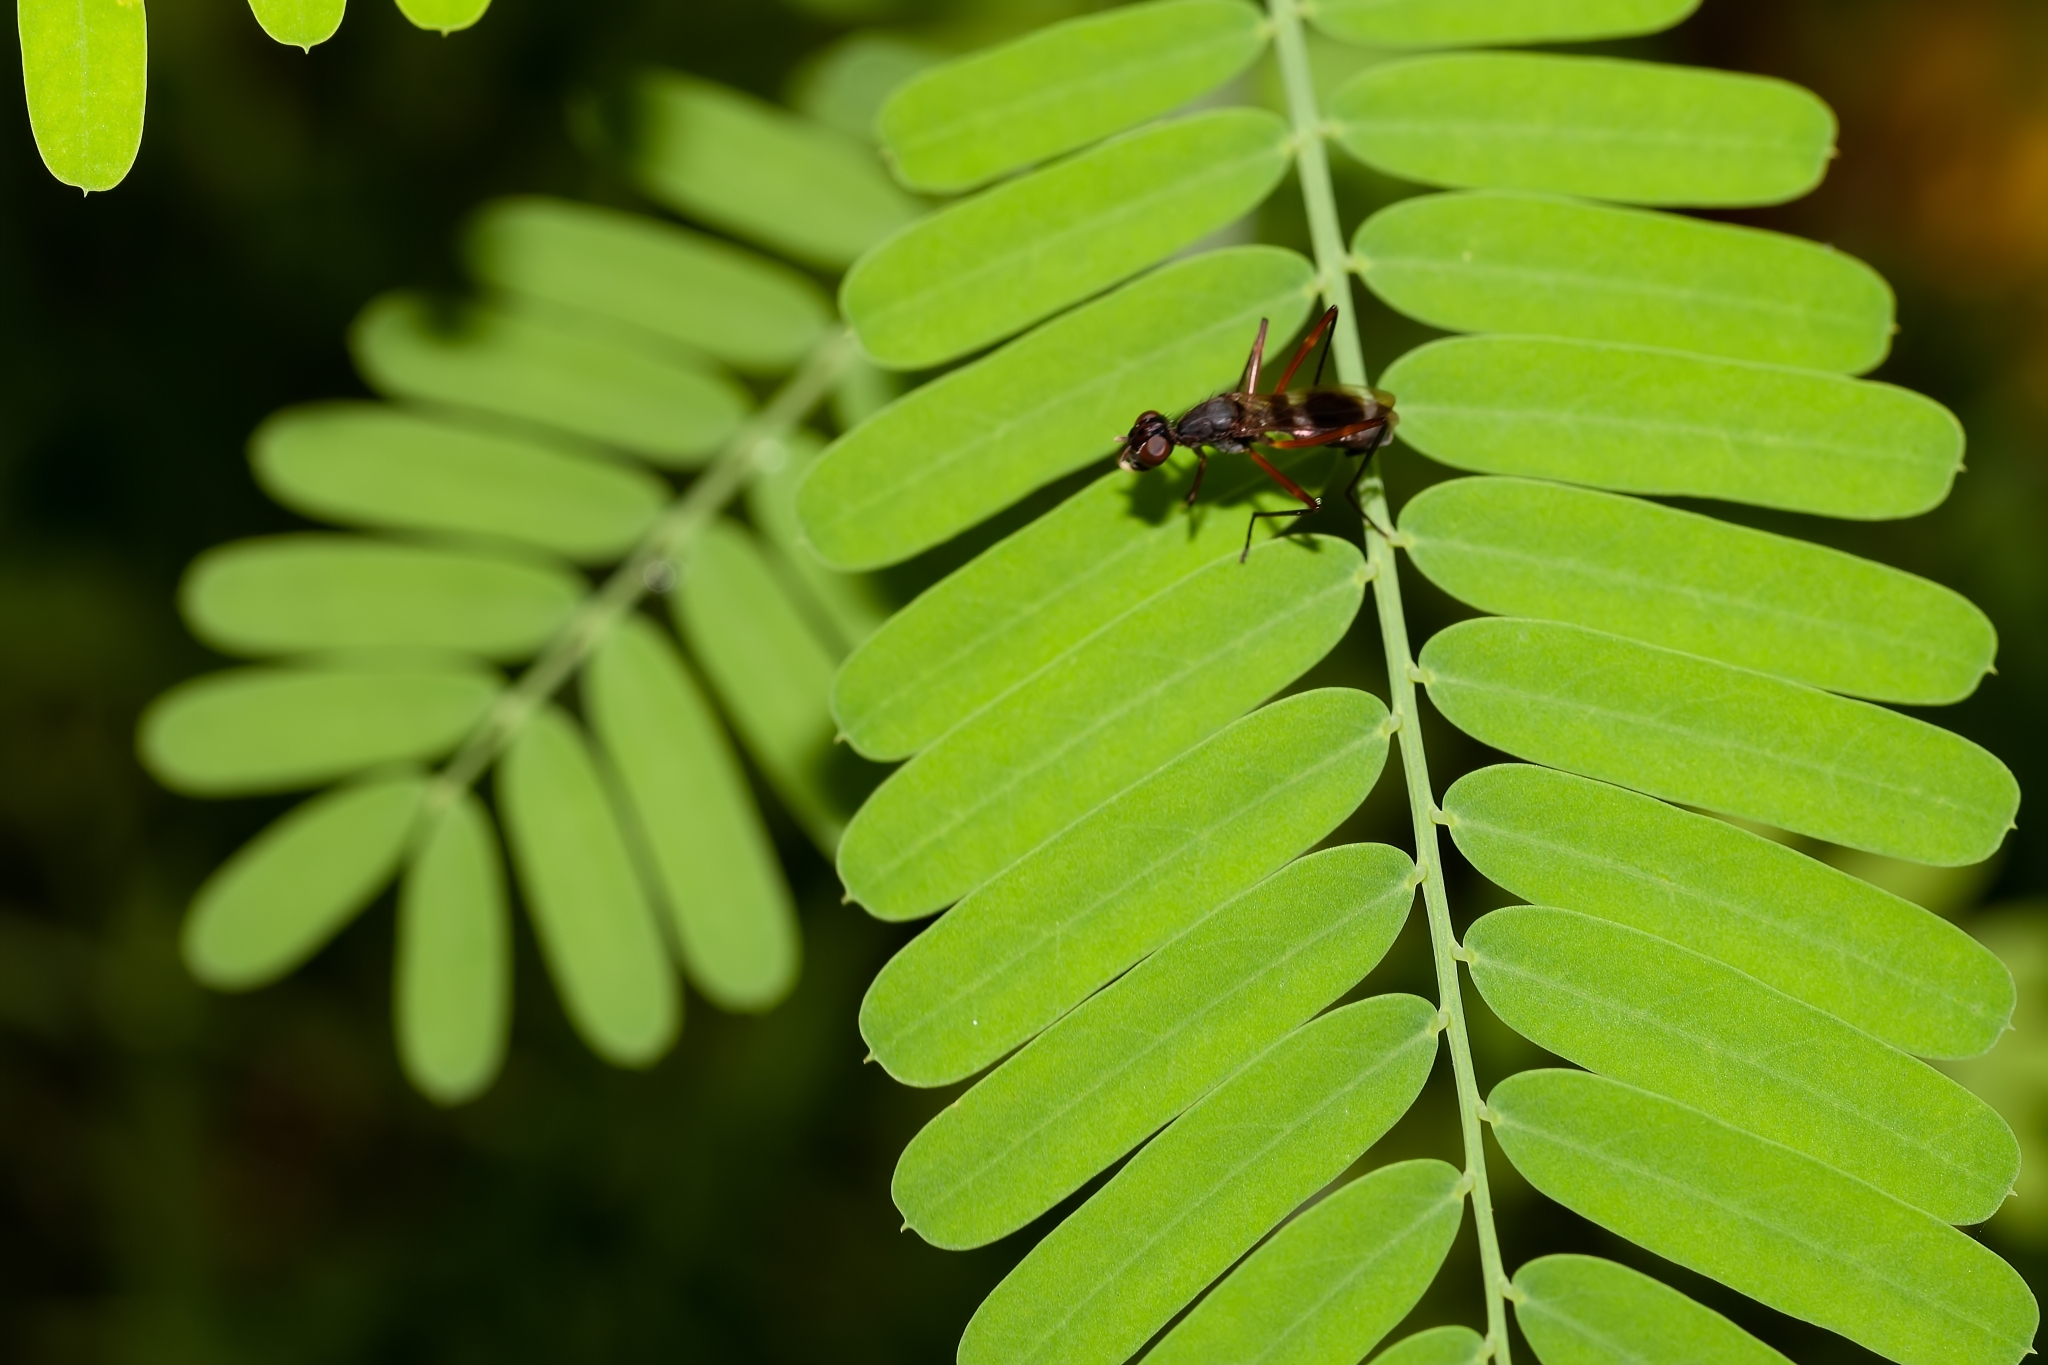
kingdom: Animalia
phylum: Arthropoda
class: Insecta
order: Diptera
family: Micropezidae
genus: Taeniaptera
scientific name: Taeniaptera trivittata
